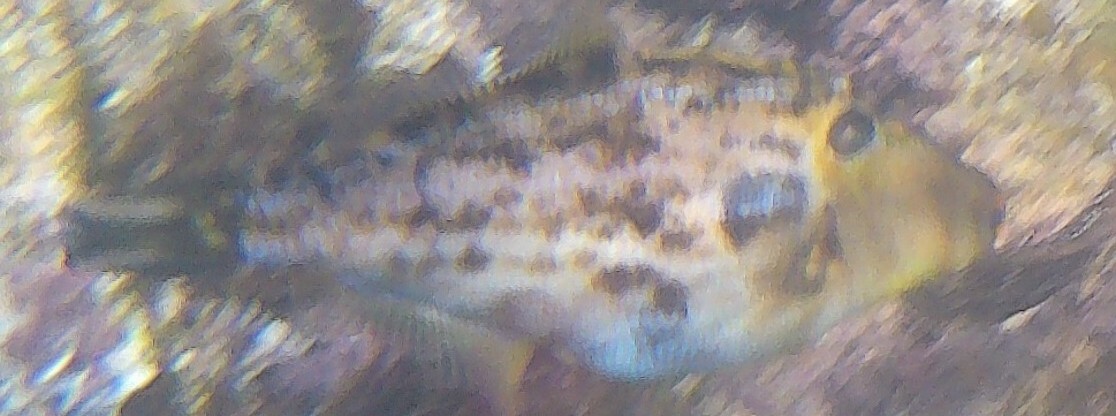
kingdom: Animalia
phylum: Chordata
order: Tetraodontiformes
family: Monacanthidae
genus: Scobinichthys
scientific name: Scobinichthys granulatus
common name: Rough leatherjacket
